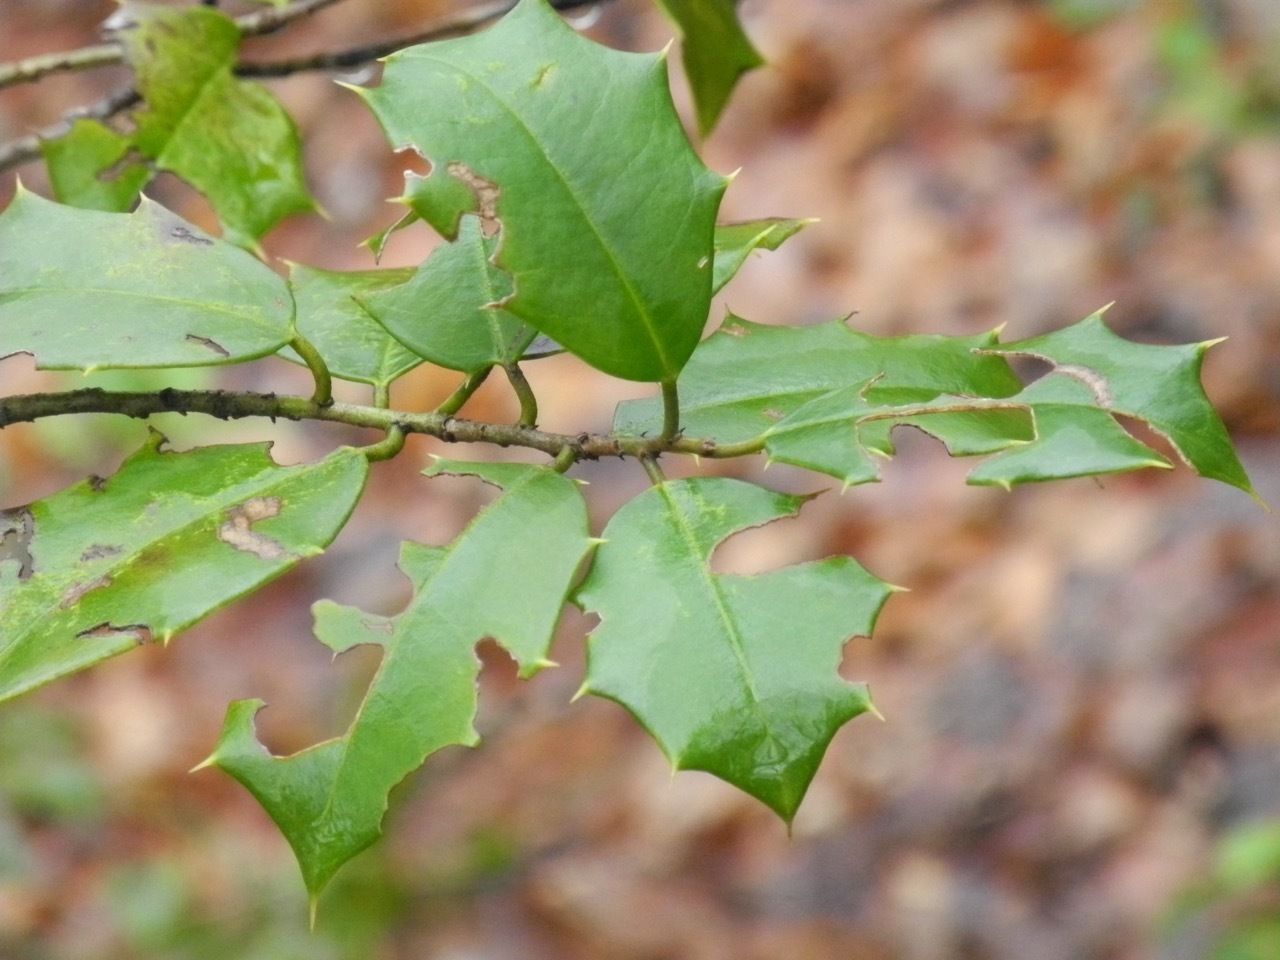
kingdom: Plantae
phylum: Tracheophyta
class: Magnoliopsida
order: Aquifoliales
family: Aquifoliaceae
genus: Ilex
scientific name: Ilex opaca
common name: American holly
